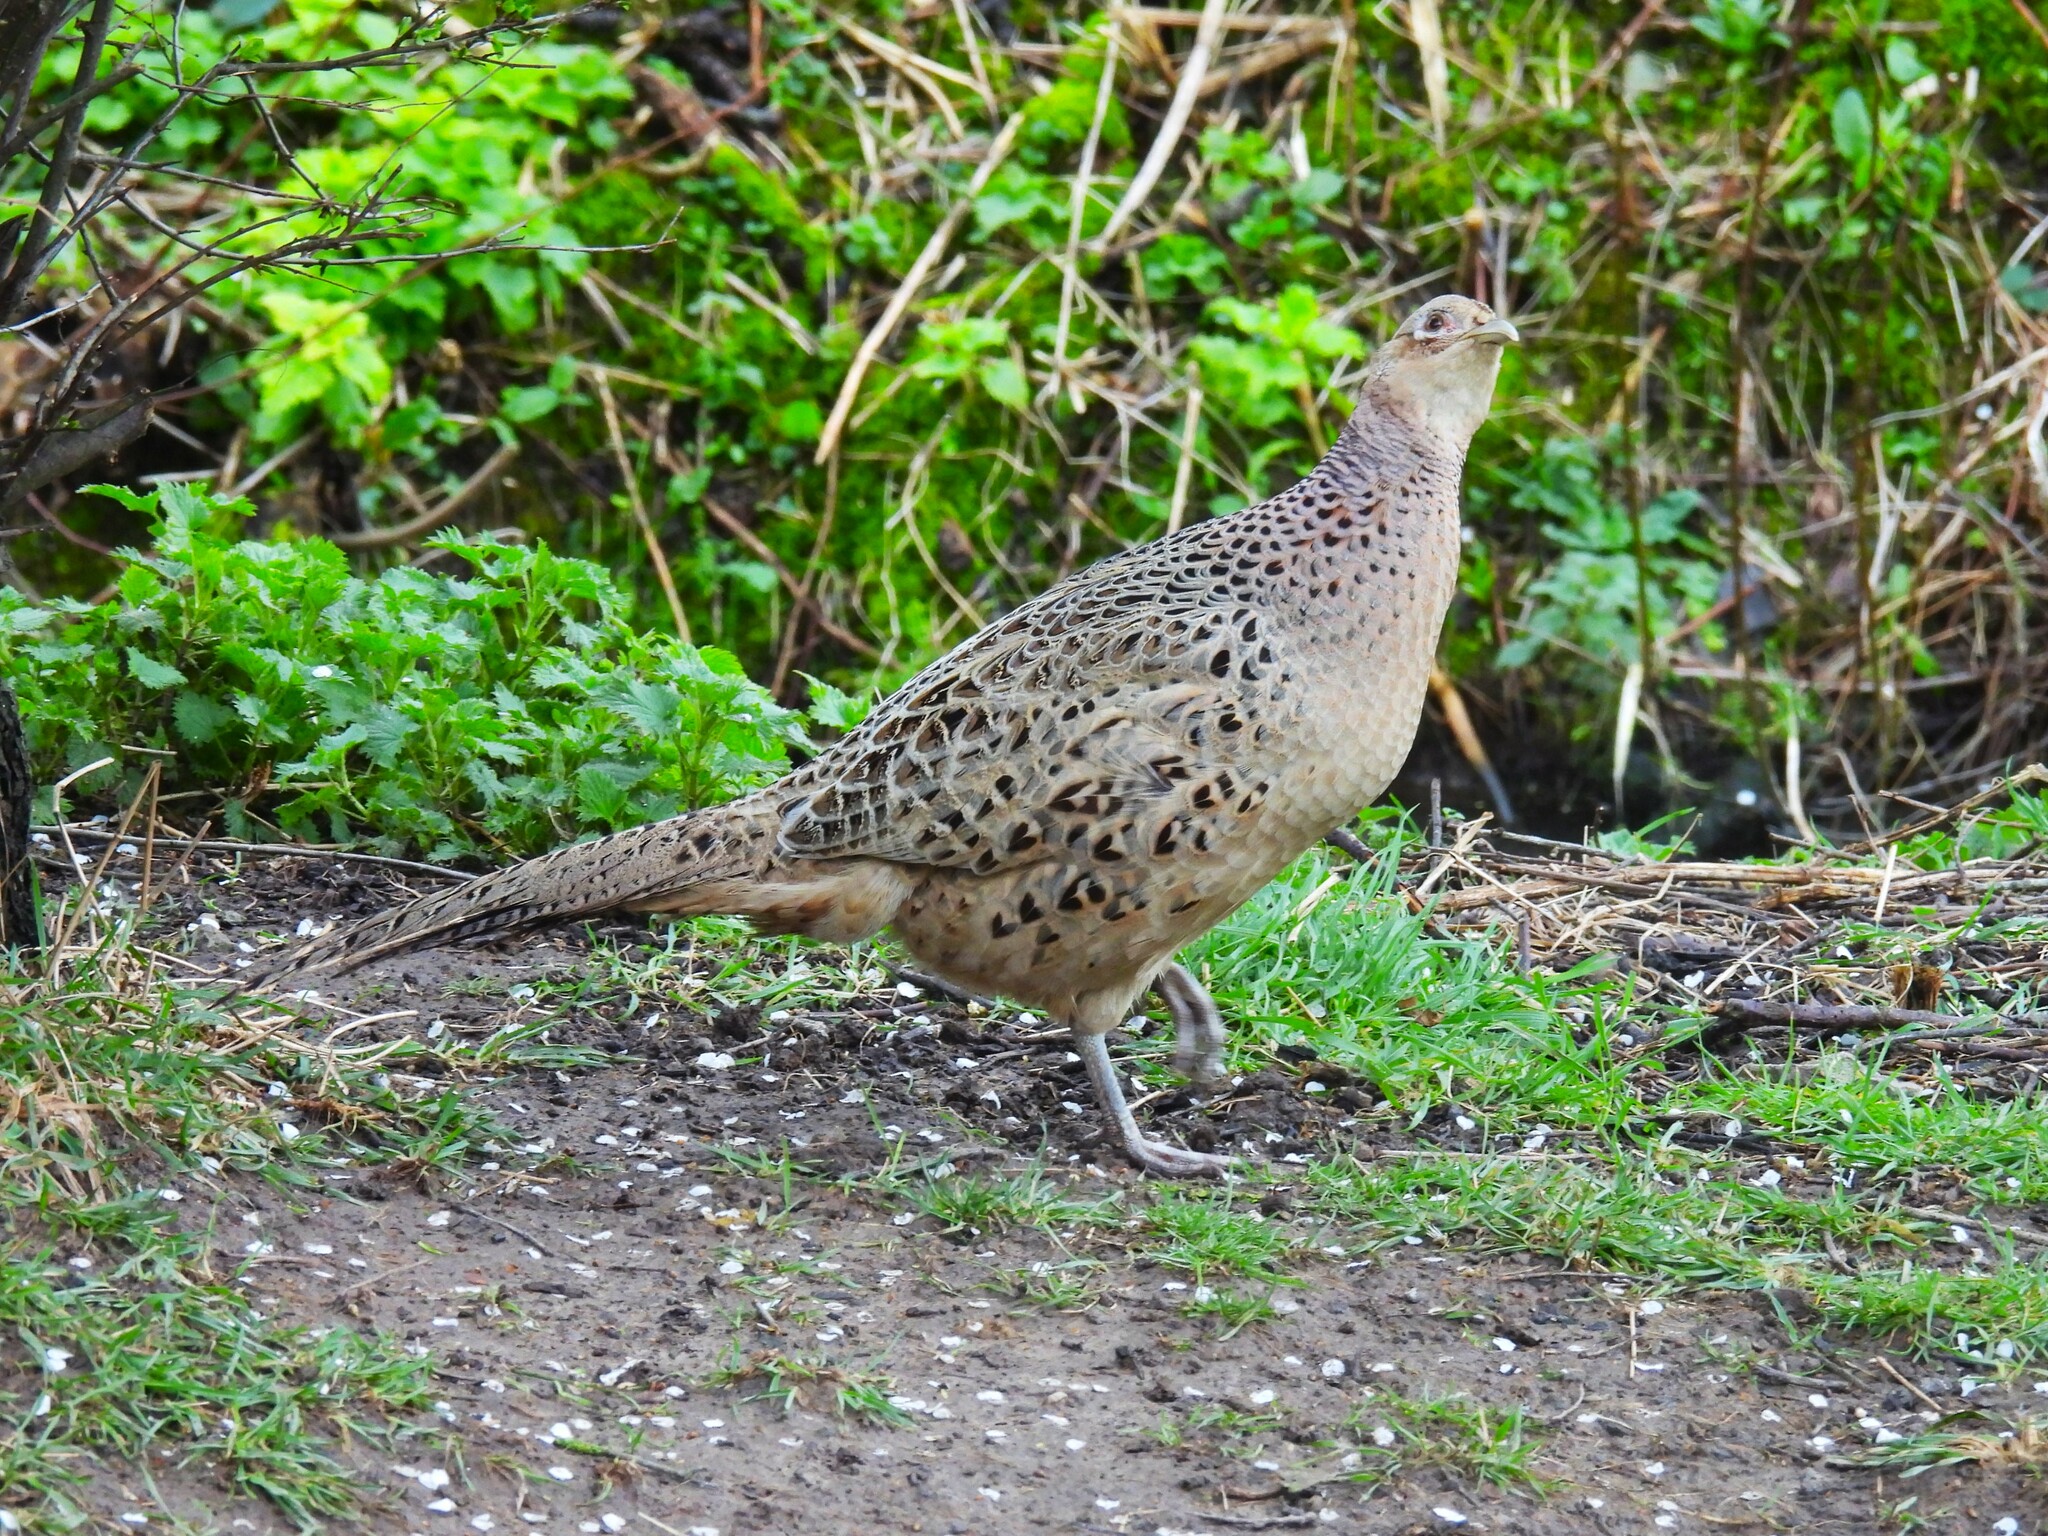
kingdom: Animalia
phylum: Chordata
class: Aves
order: Galliformes
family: Phasianidae
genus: Phasianus
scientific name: Phasianus colchicus
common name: Common pheasant
